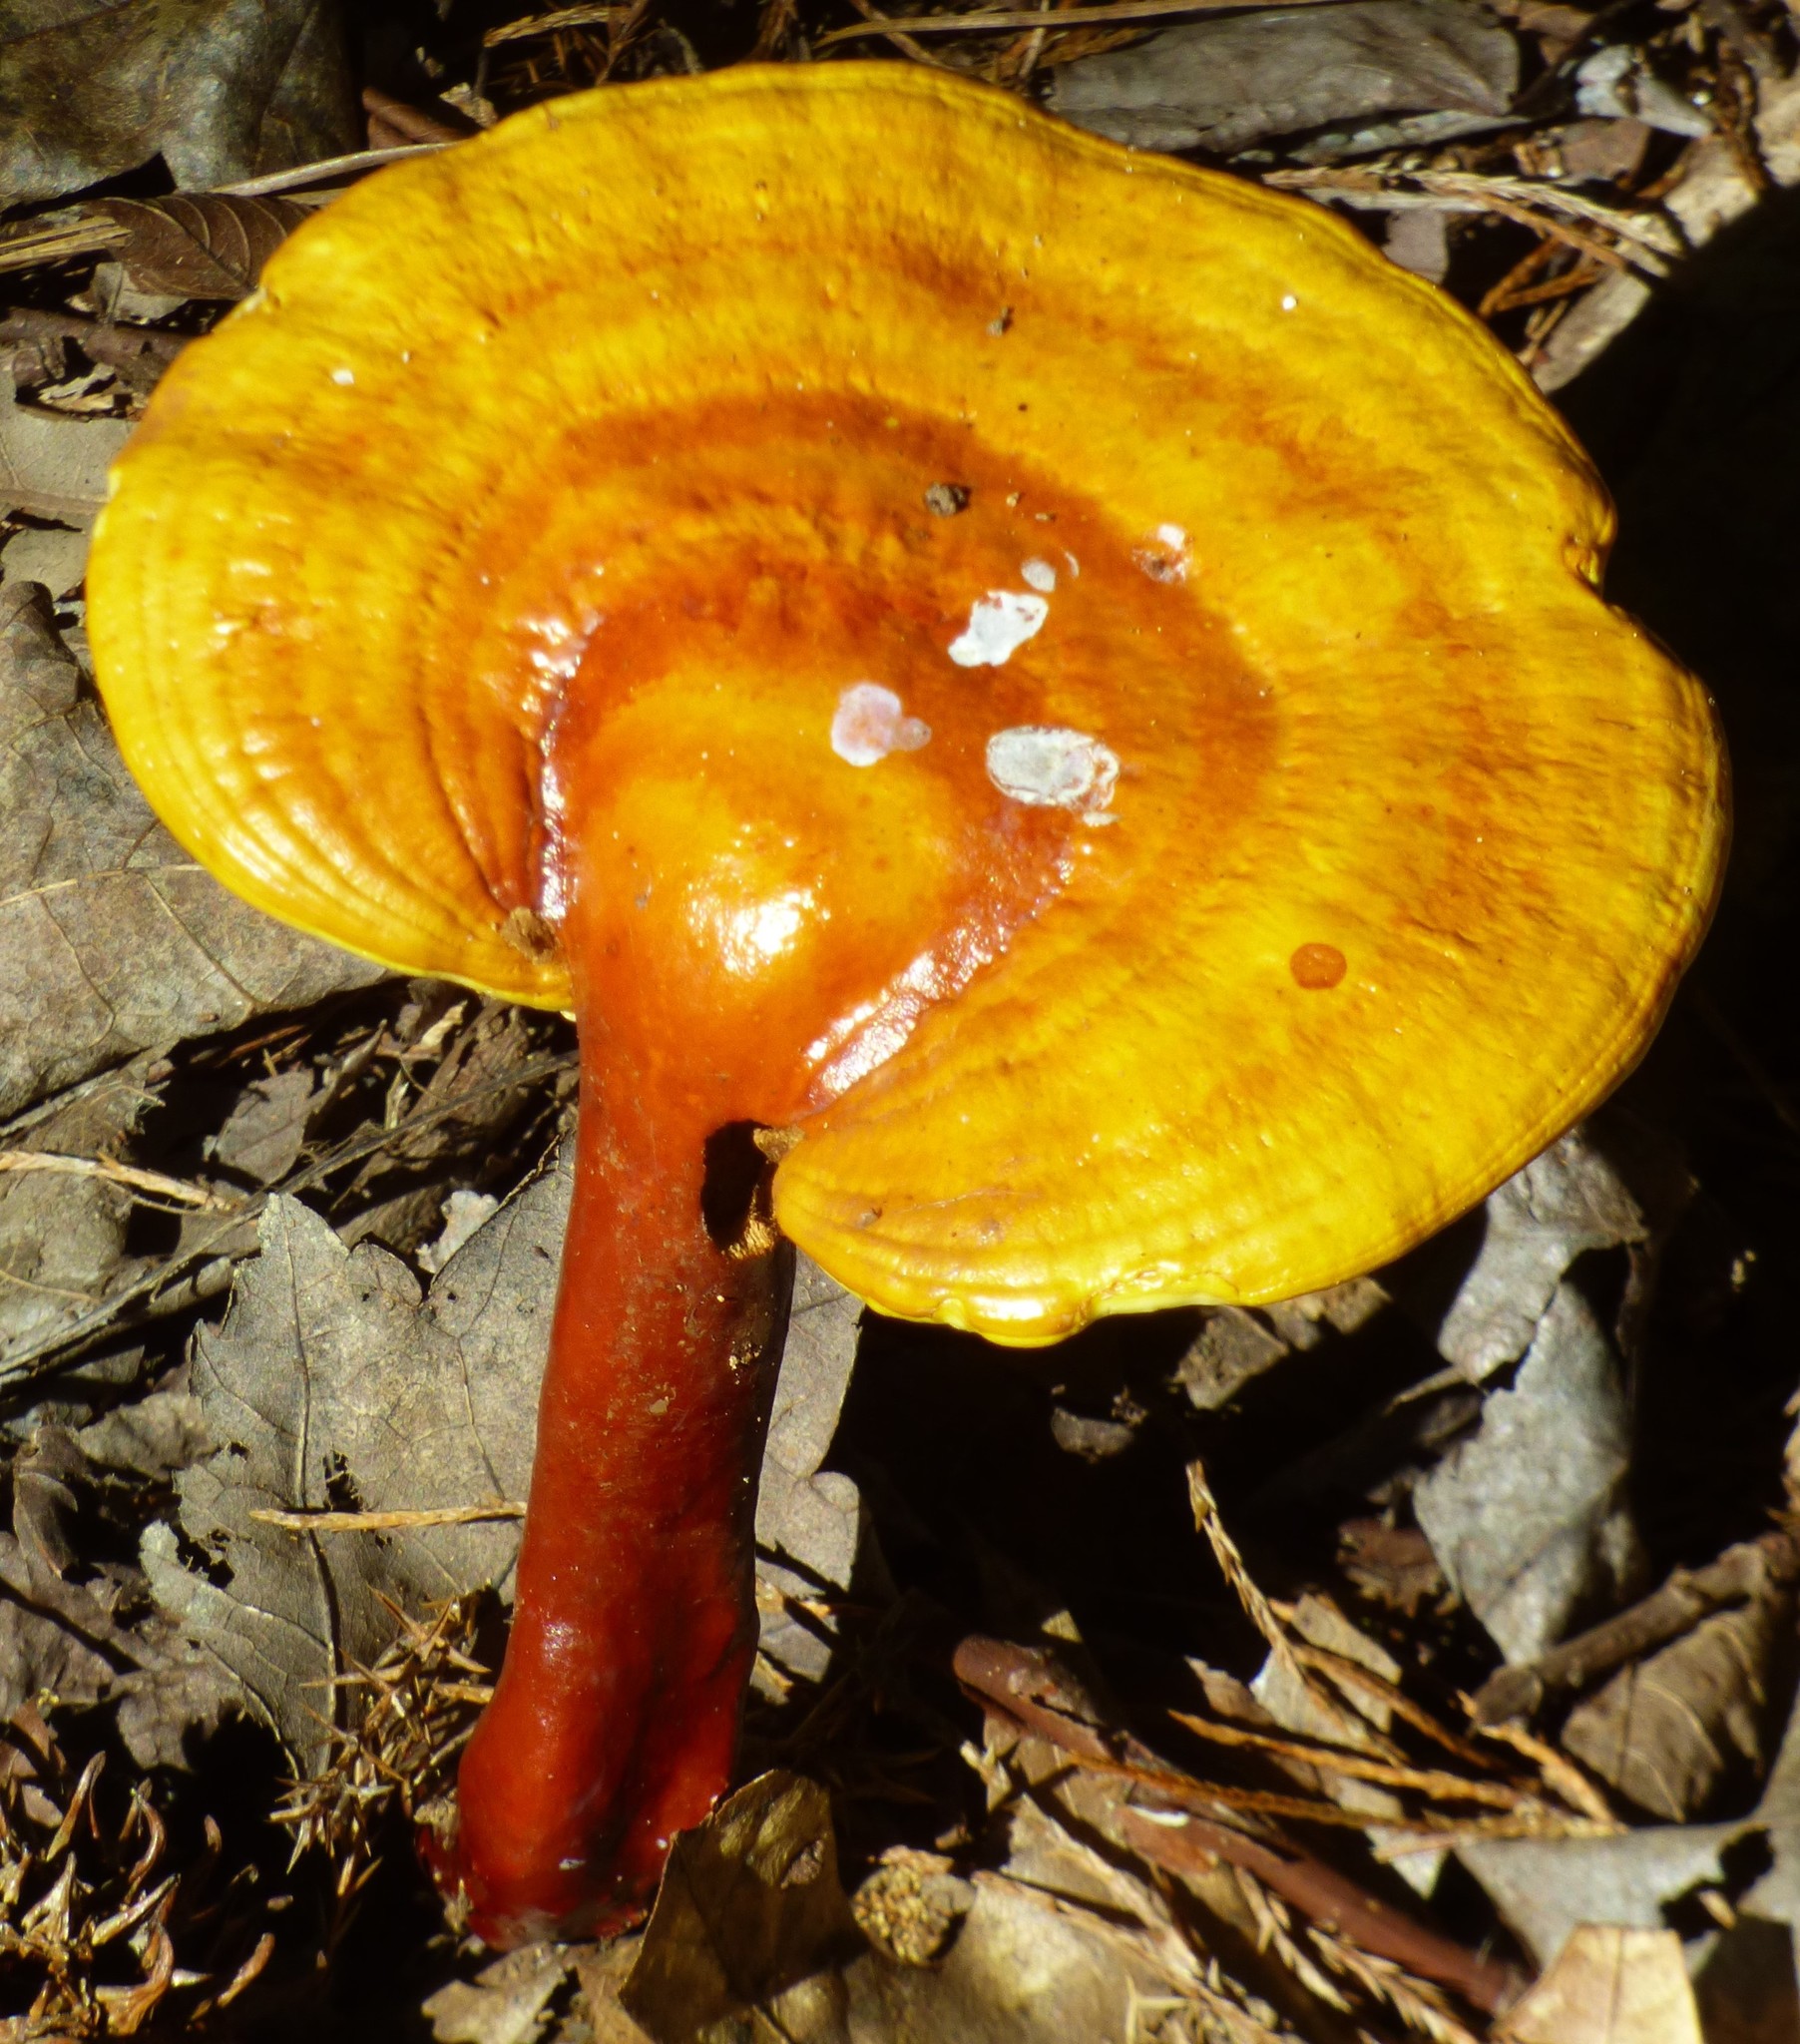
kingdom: Fungi
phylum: Basidiomycota
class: Agaricomycetes
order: Polyporales
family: Polyporaceae
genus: Ganoderma
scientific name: Ganoderma curtisii
